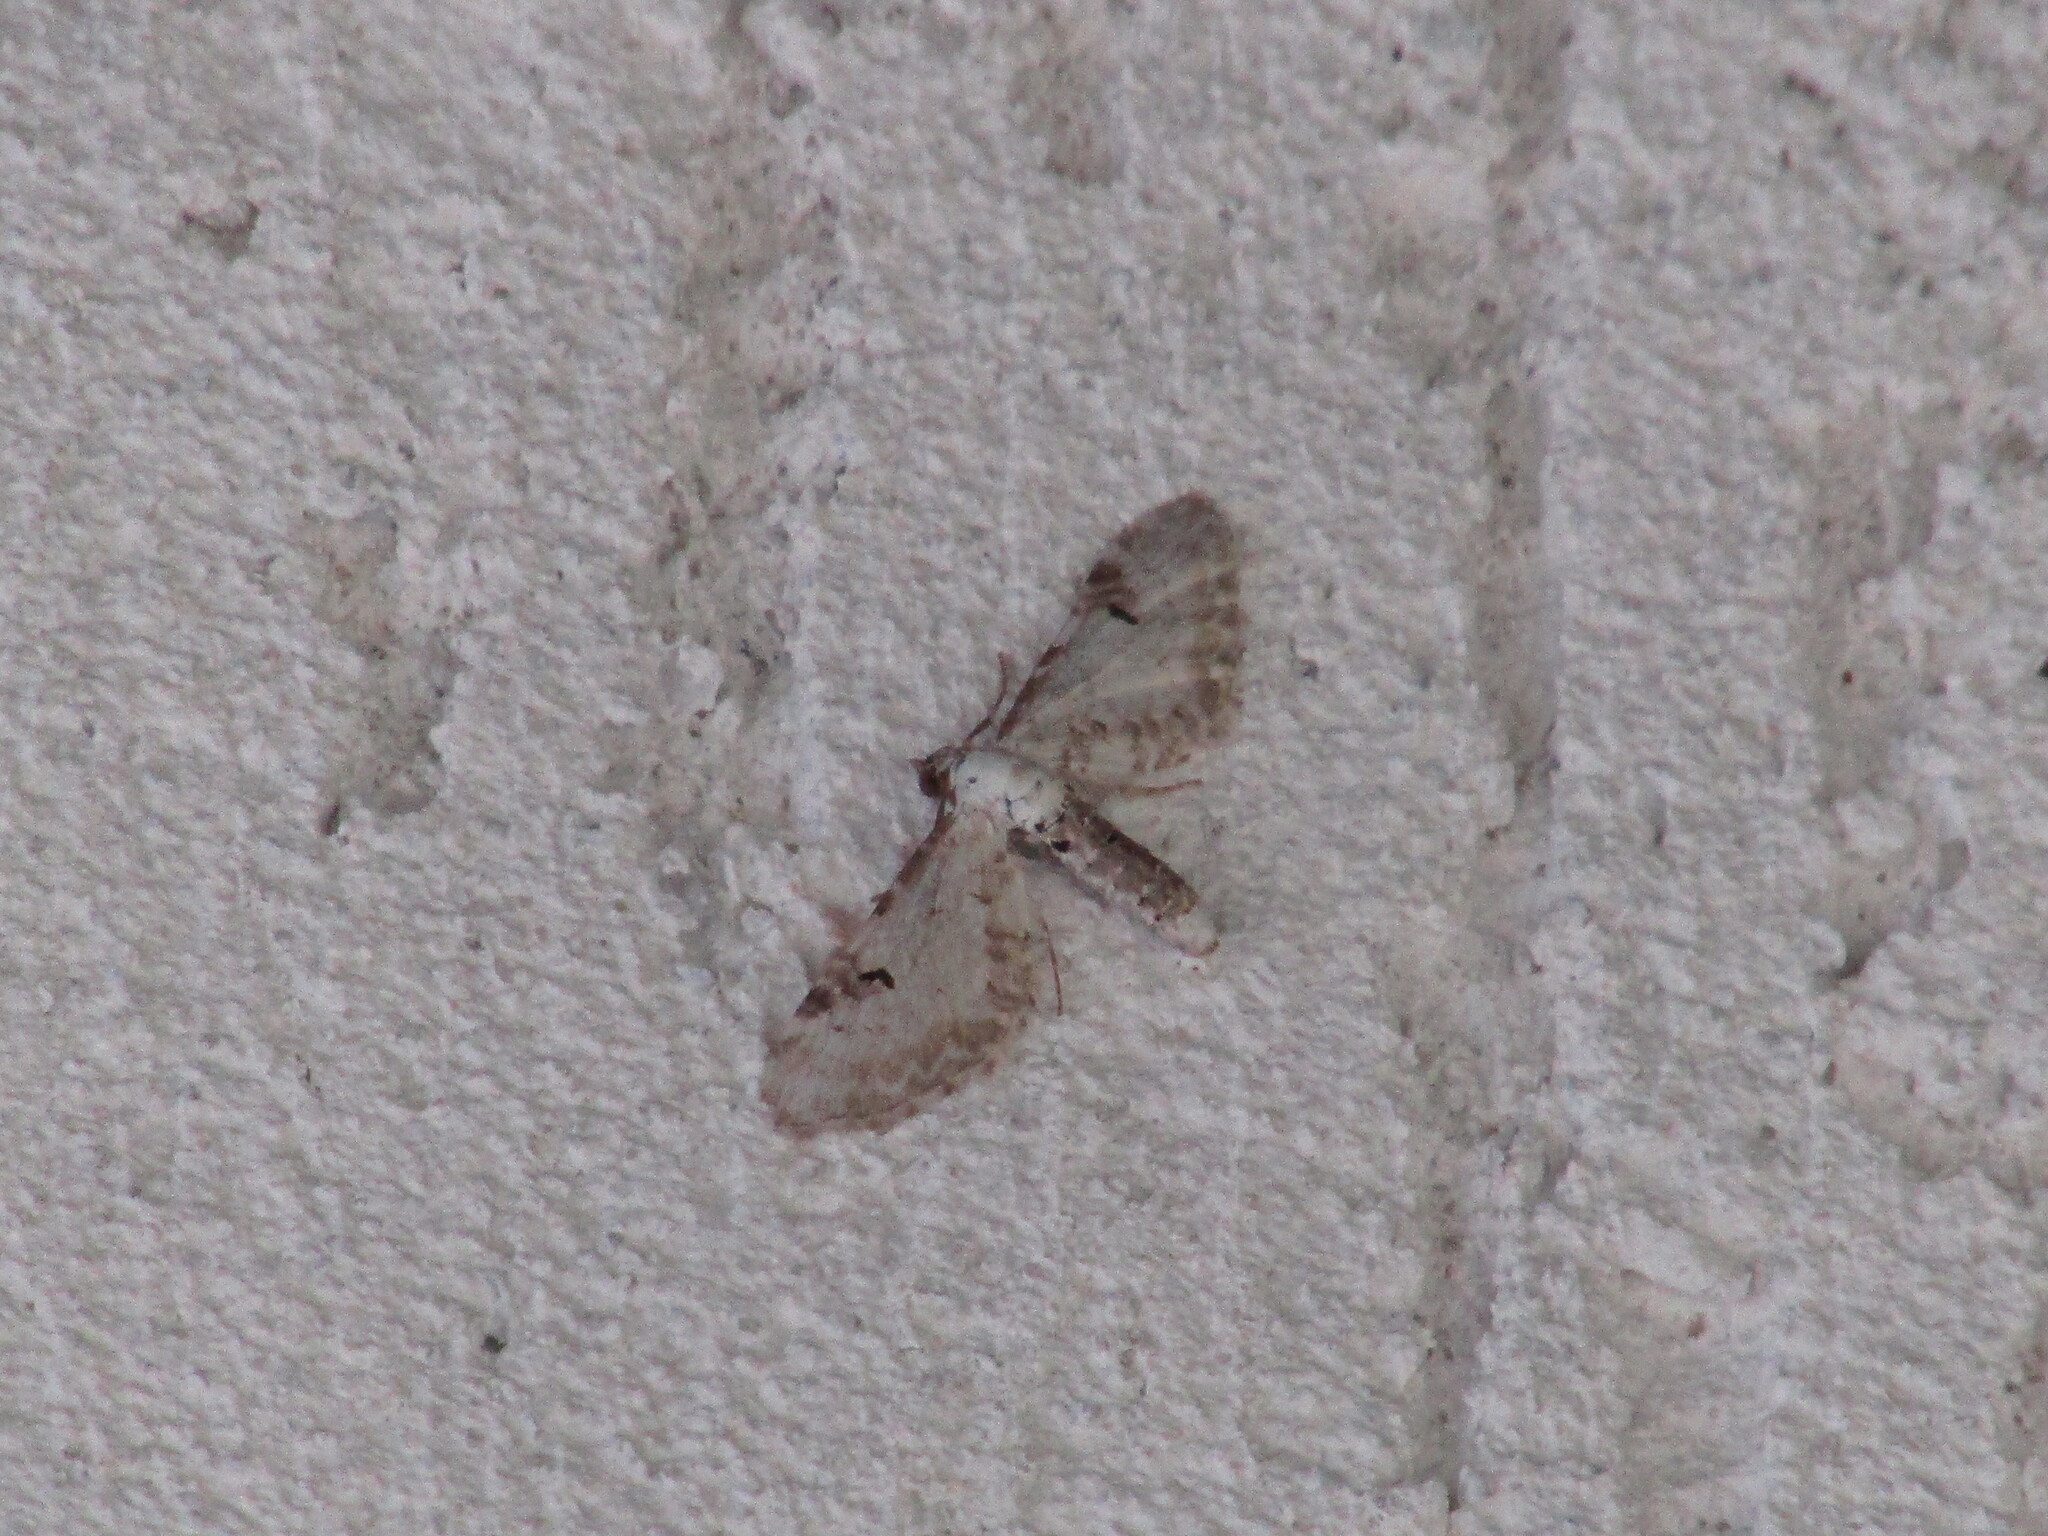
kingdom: Animalia
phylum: Arthropoda
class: Insecta
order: Lepidoptera
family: Geometridae
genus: Eupithecia
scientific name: Eupithecia centaureata
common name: Lime-speck pug
